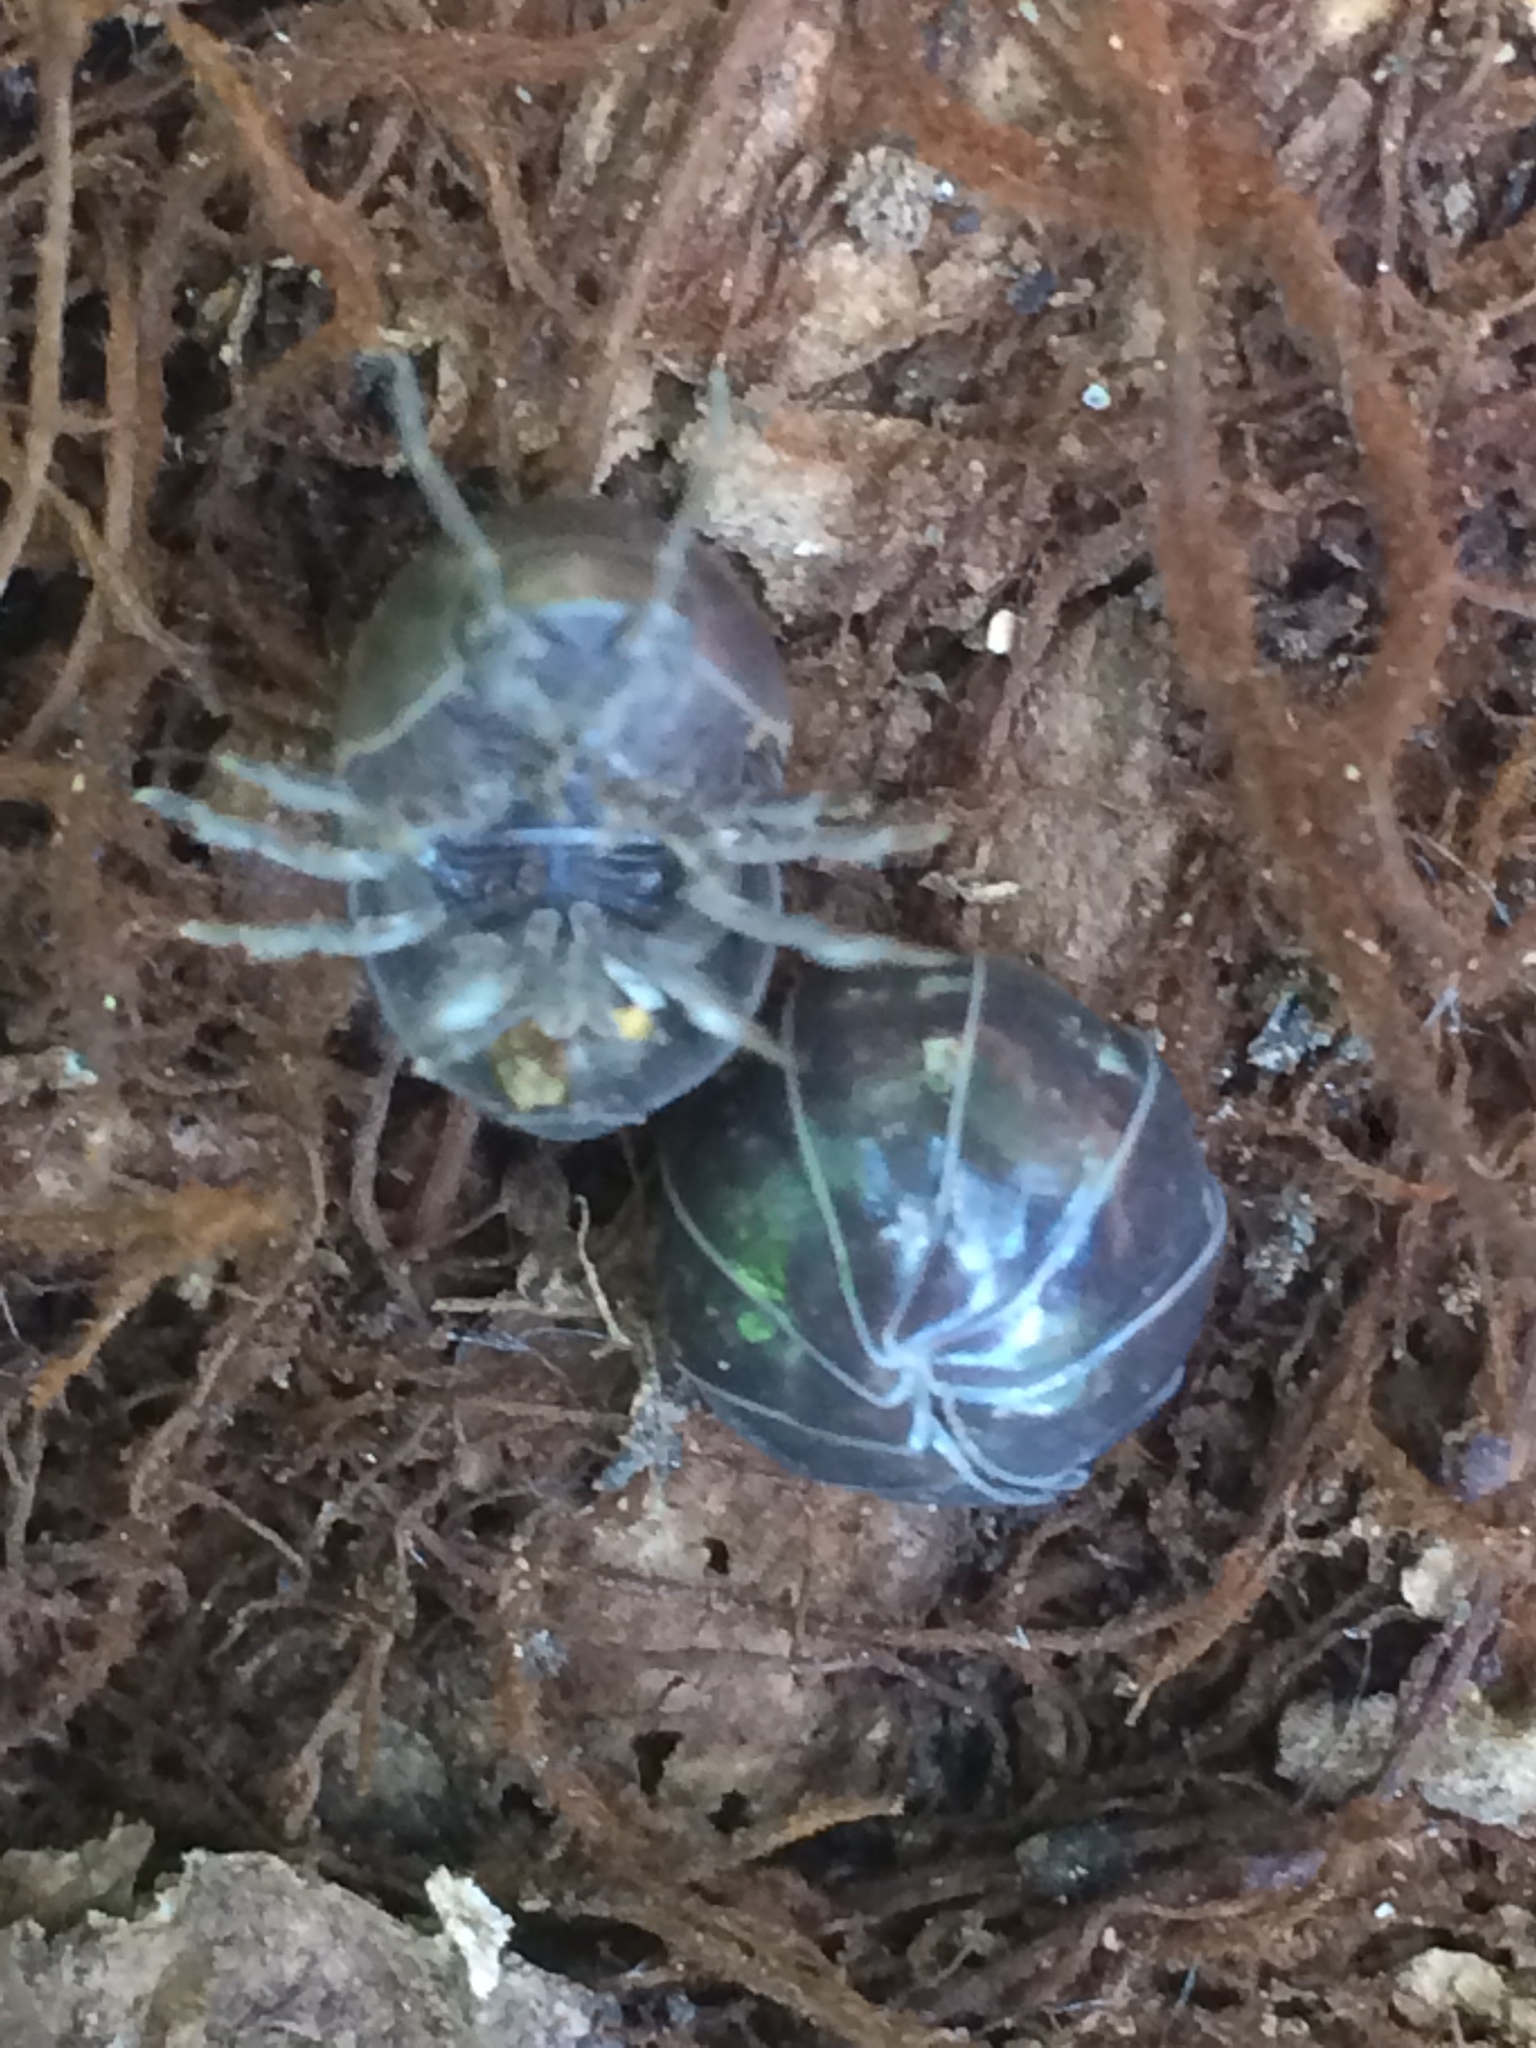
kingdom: Animalia
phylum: Arthropoda
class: Malacostraca
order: Isopoda
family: Armadillidiidae
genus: Armadillidium
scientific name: Armadillidium vulgare
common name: Common pill woodlouse
